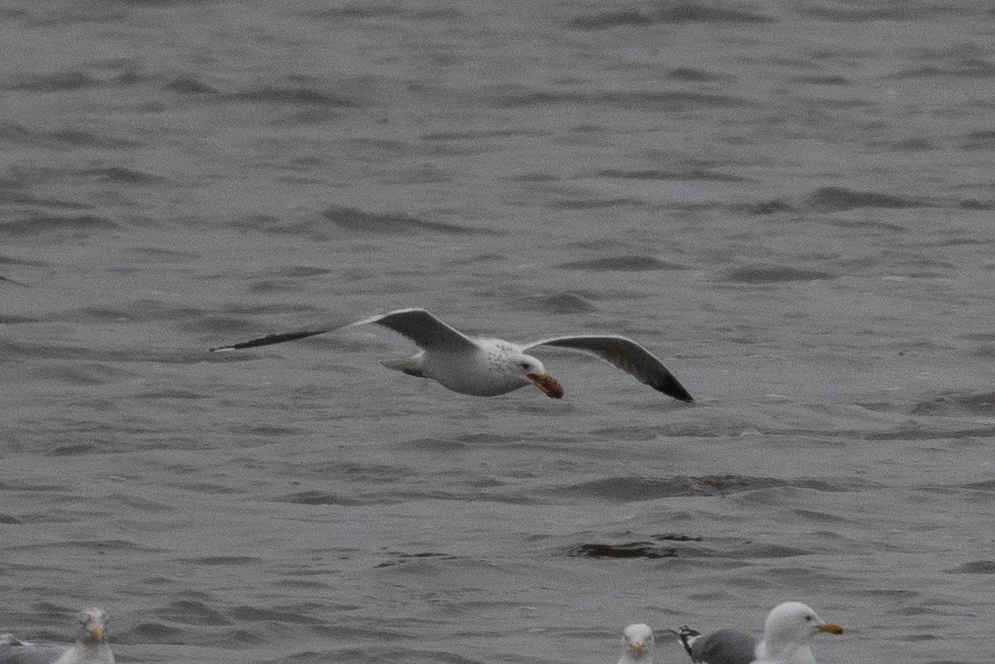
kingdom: Animalia
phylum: Chordata
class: Aves
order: Charadriiformes
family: Laridae
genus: Larus
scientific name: Larus californicus
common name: California gull
